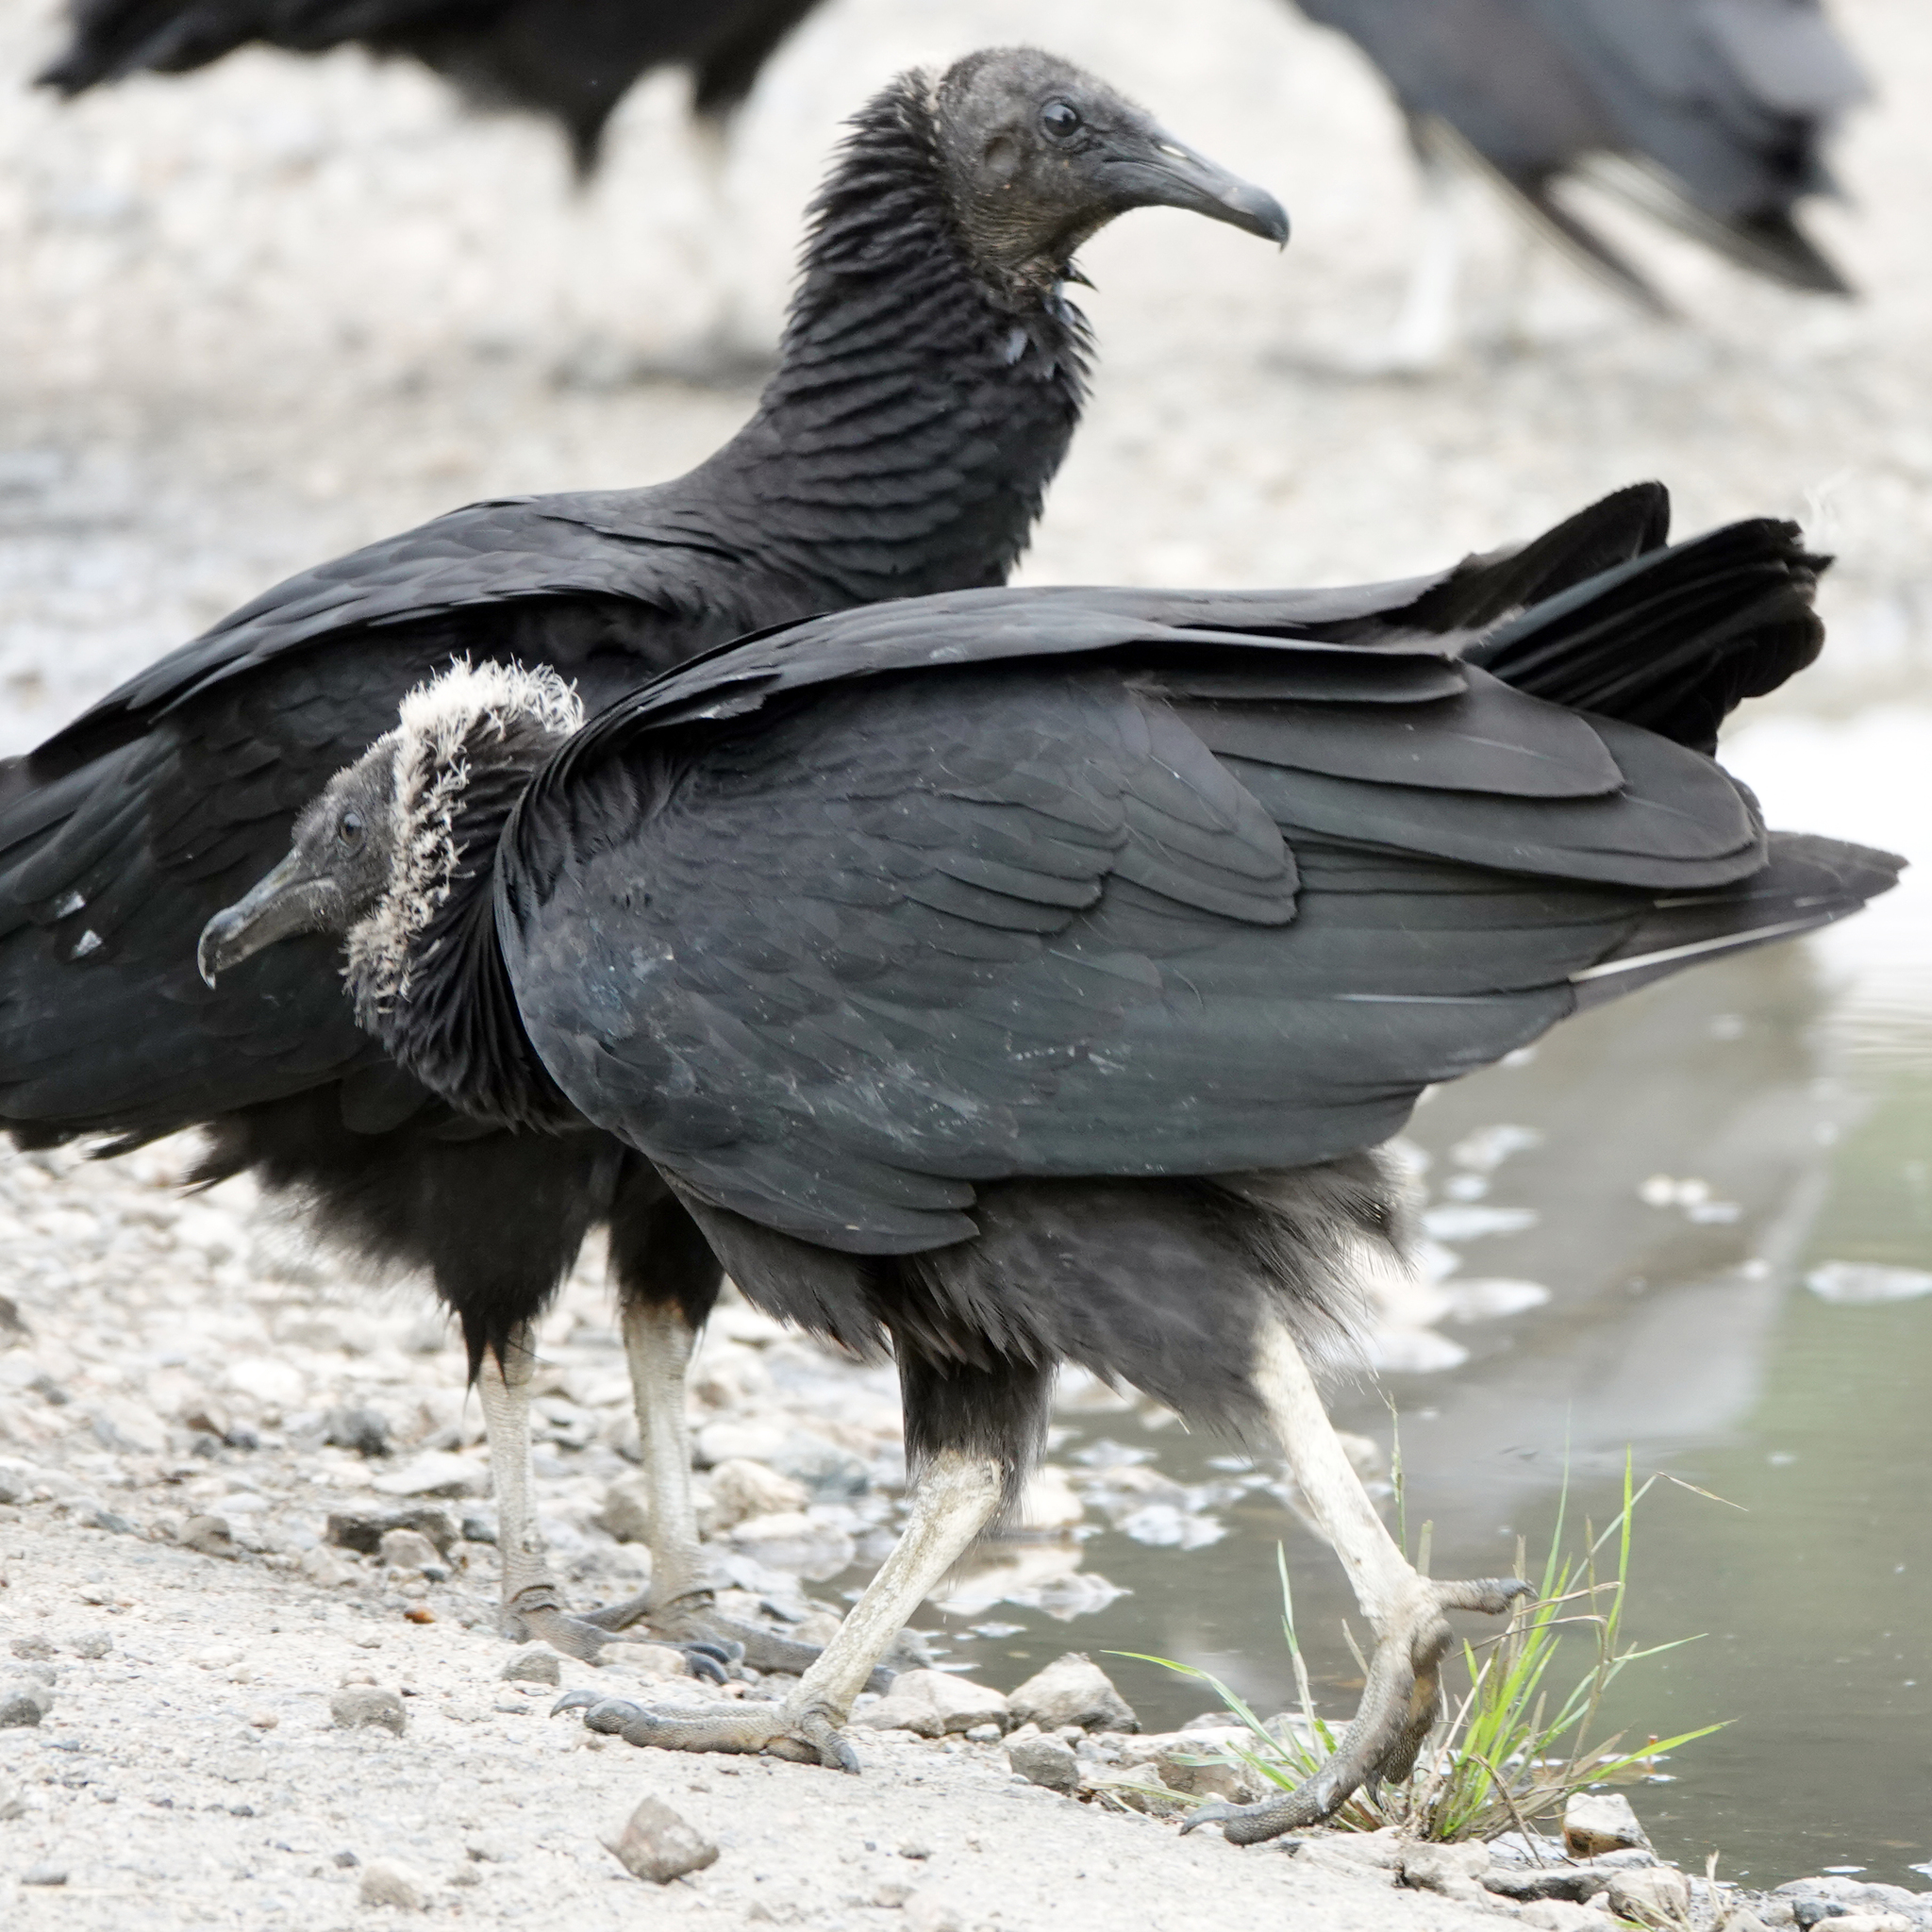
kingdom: Animalia
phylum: Chordata
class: Aves
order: Accipitriformes
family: Cathartidae
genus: Coragyps
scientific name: Coragyps atratus
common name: Black vulture
